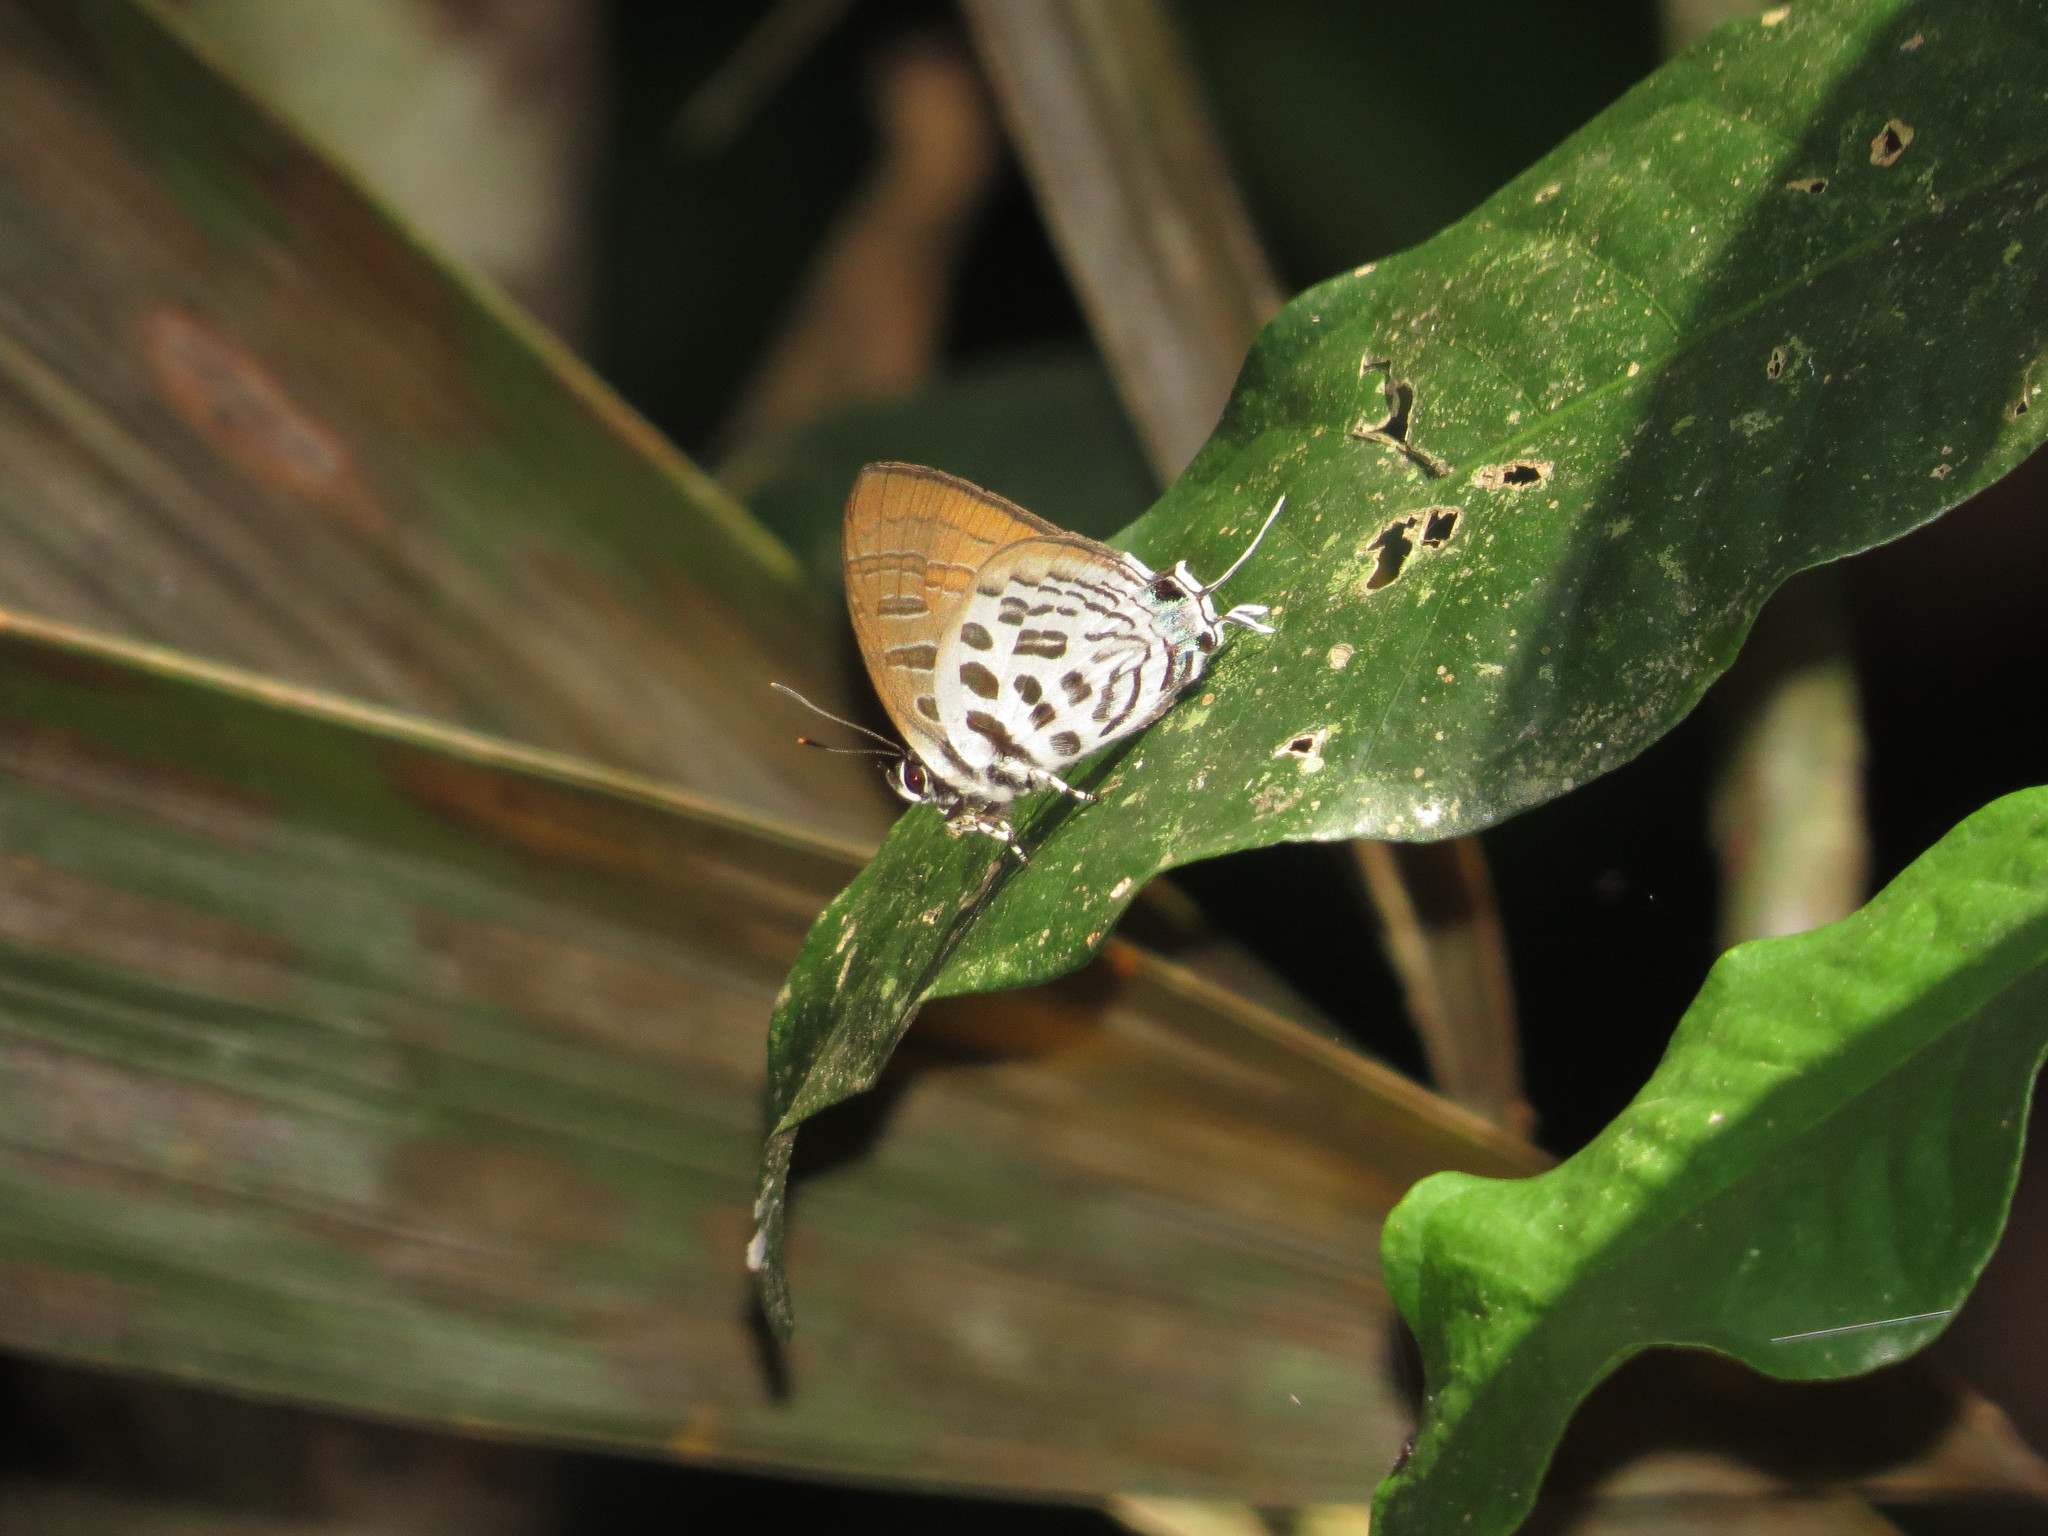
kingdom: Animalia
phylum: Arthropoda
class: Insecta
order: Lepidoptera
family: Lycaenidae
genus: Drupadia
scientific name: Drupadia theda
